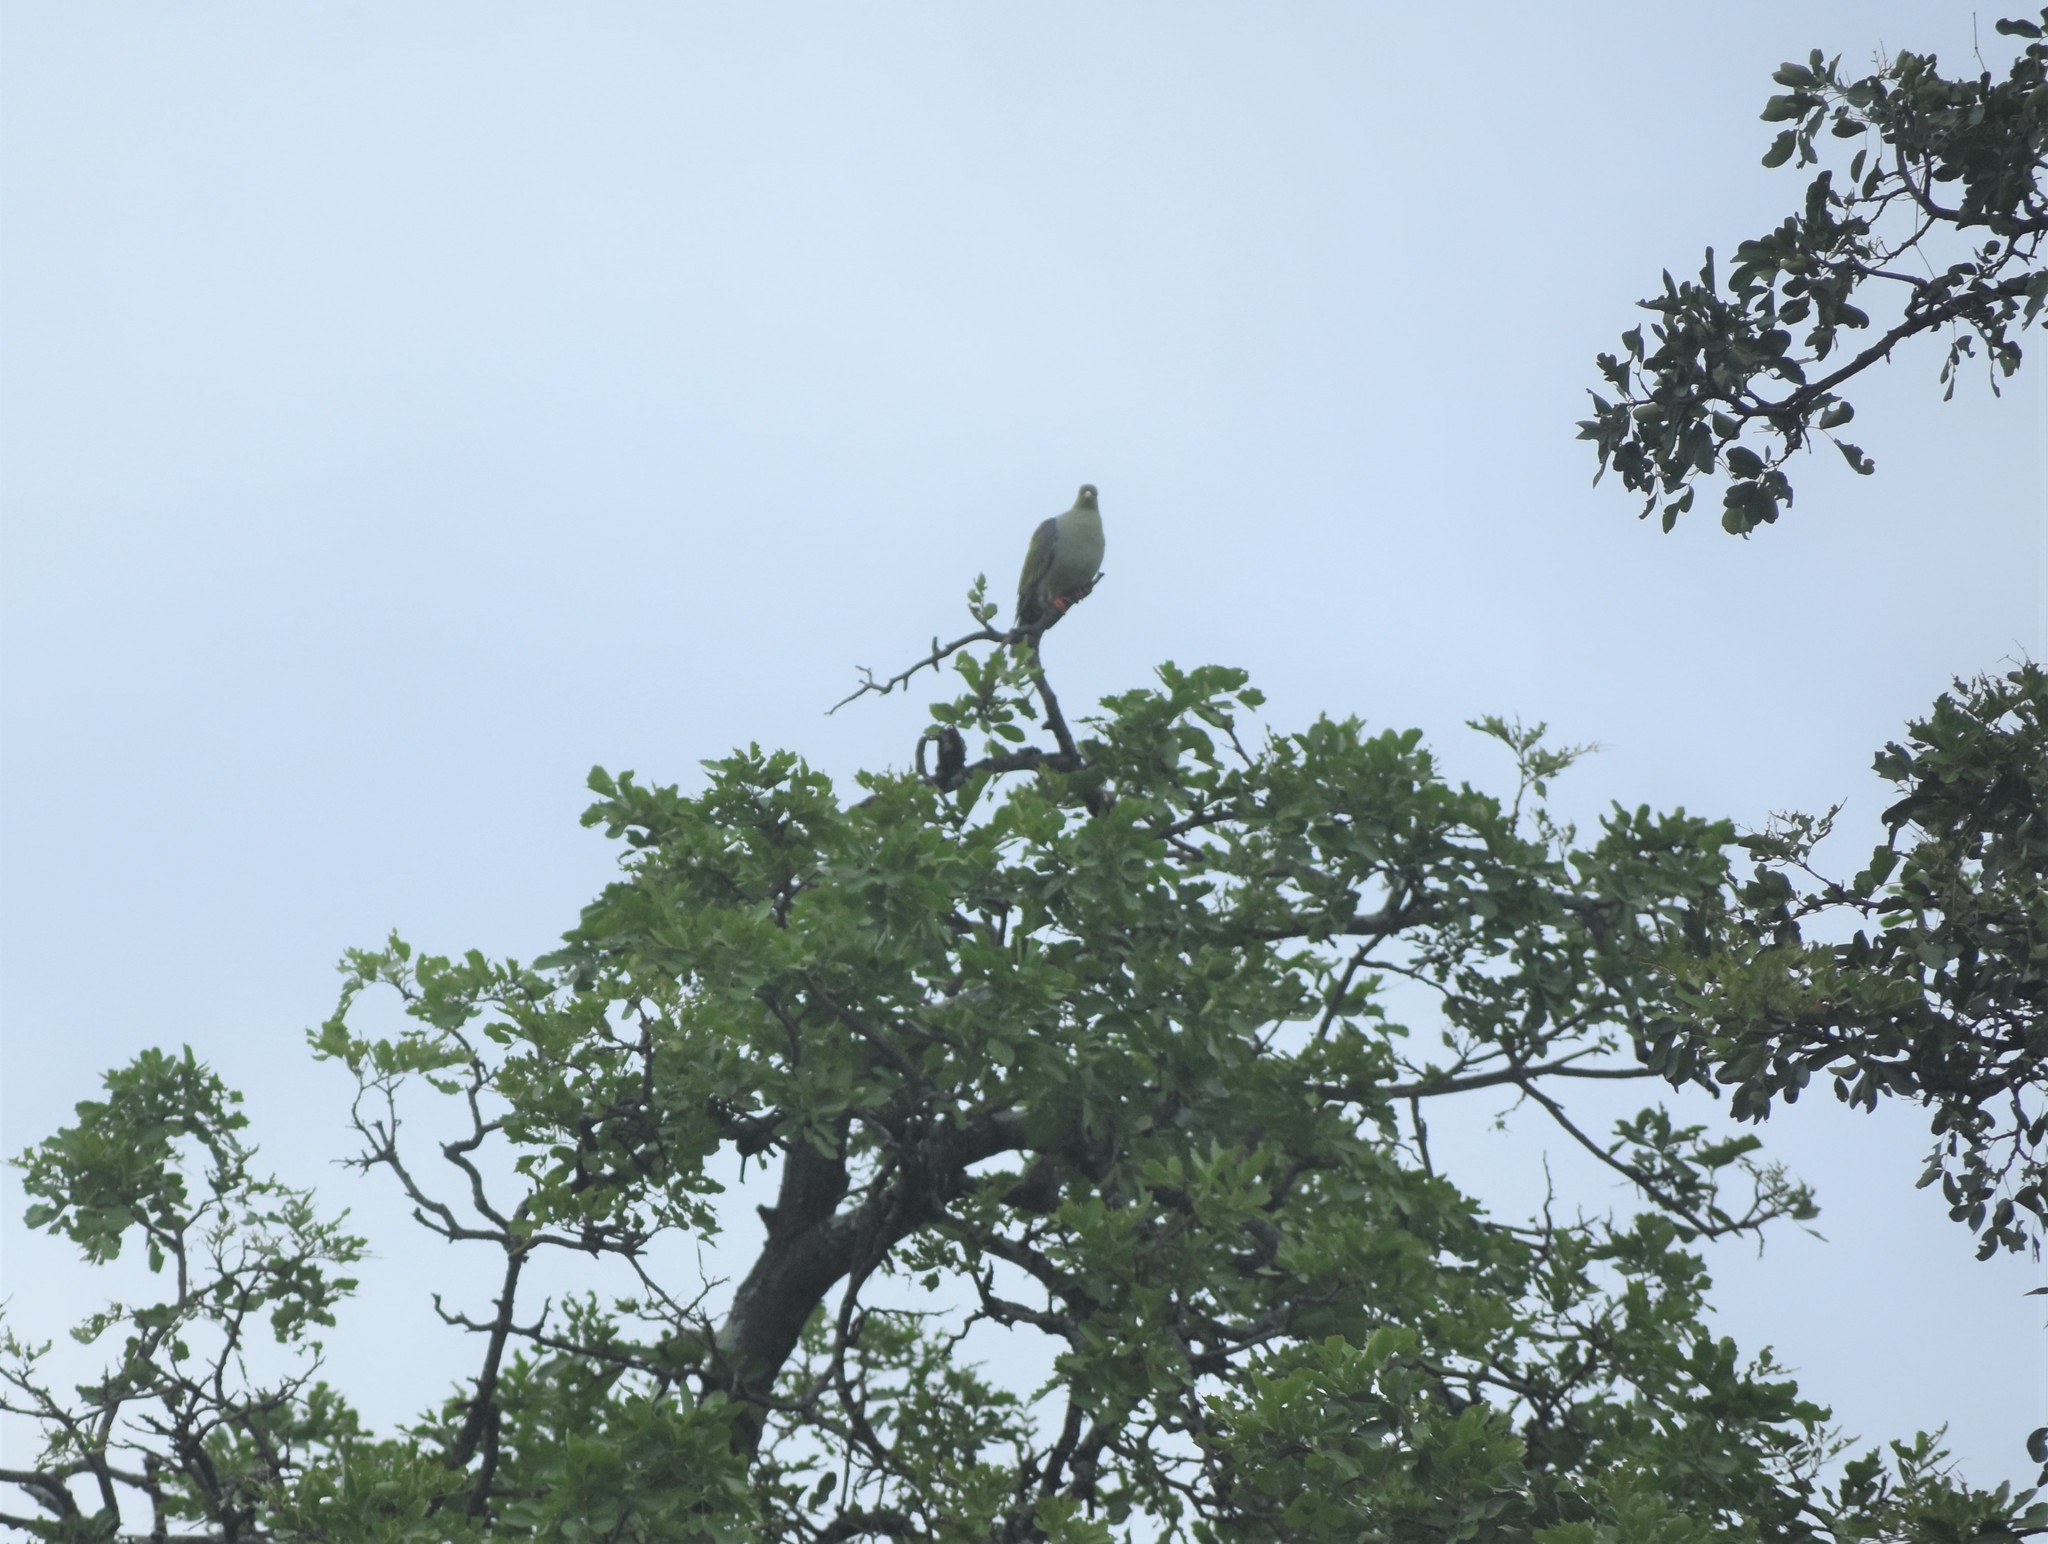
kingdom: Animalia
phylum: Chordata
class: Aves
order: Columbiformes
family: Columbidae
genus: Treron
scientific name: Treron calvus
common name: African green pigeon
